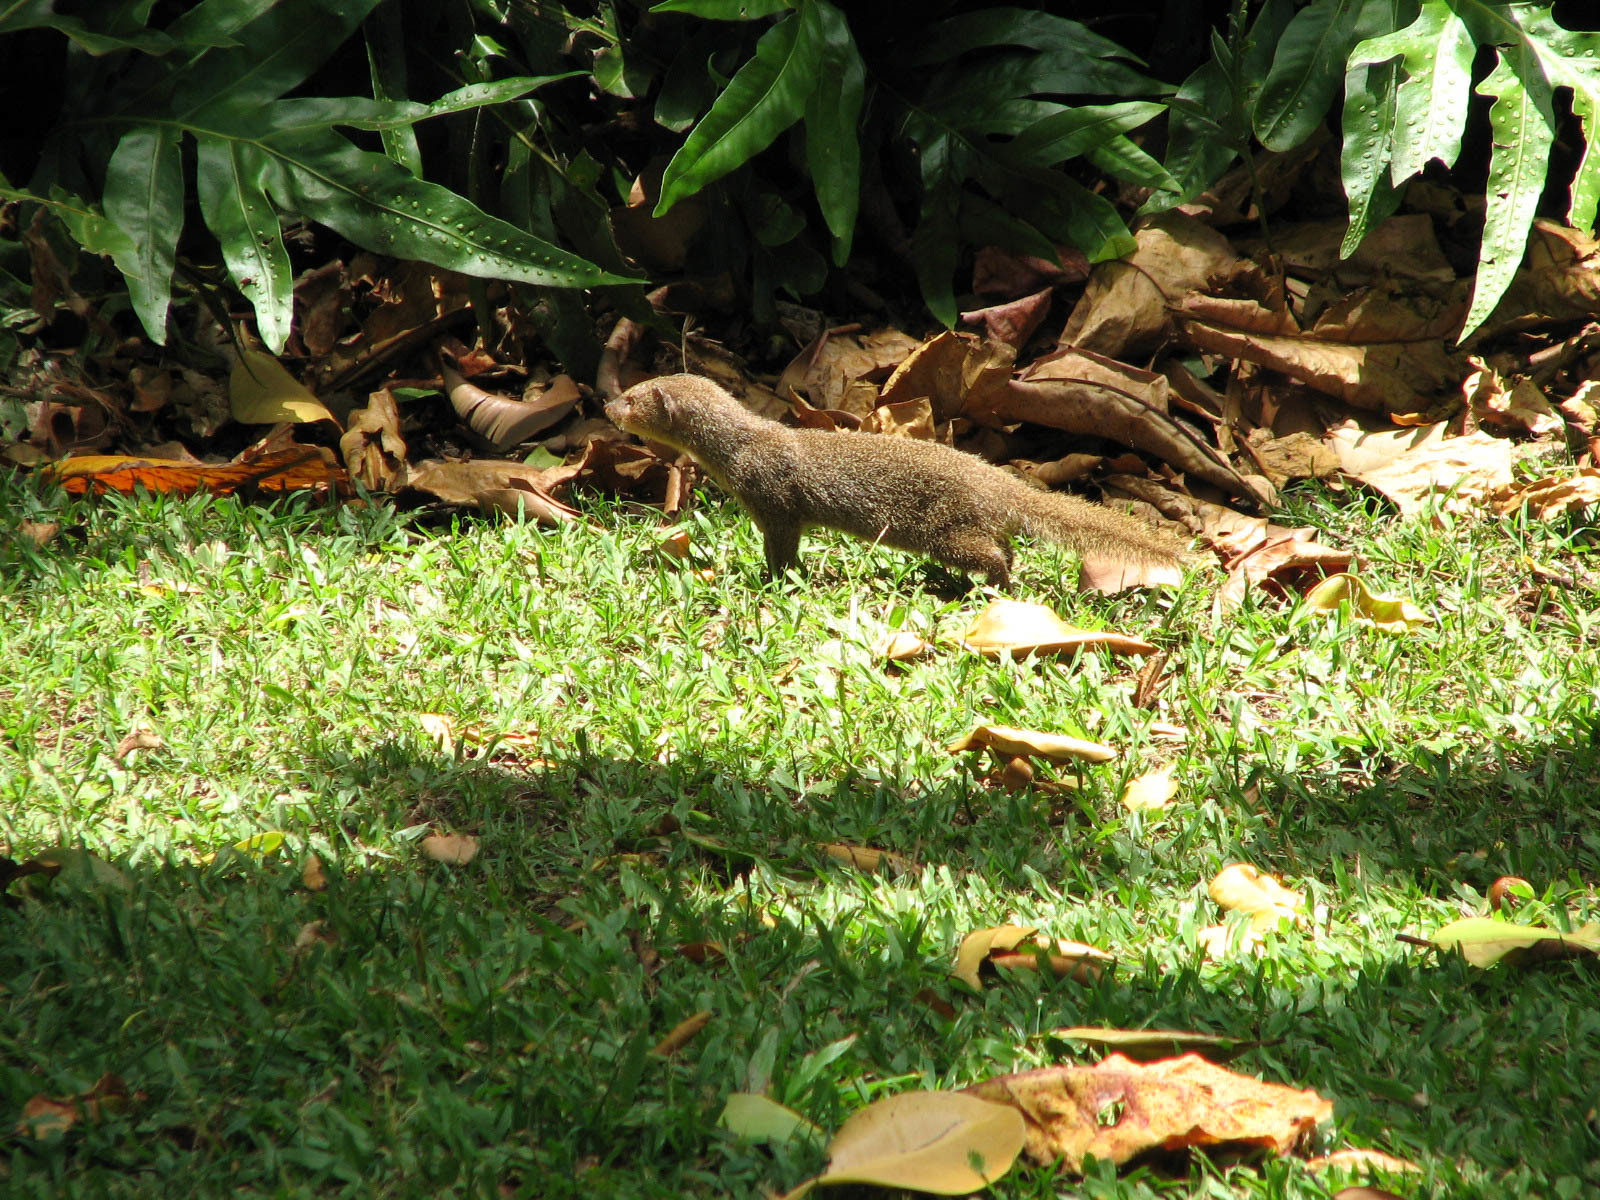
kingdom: Animalia
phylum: Chordata
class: Mammalia
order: Carnivora
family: Herpestidae
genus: Herpestes
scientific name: Herpestes javanicus
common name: Small asian mongoose
